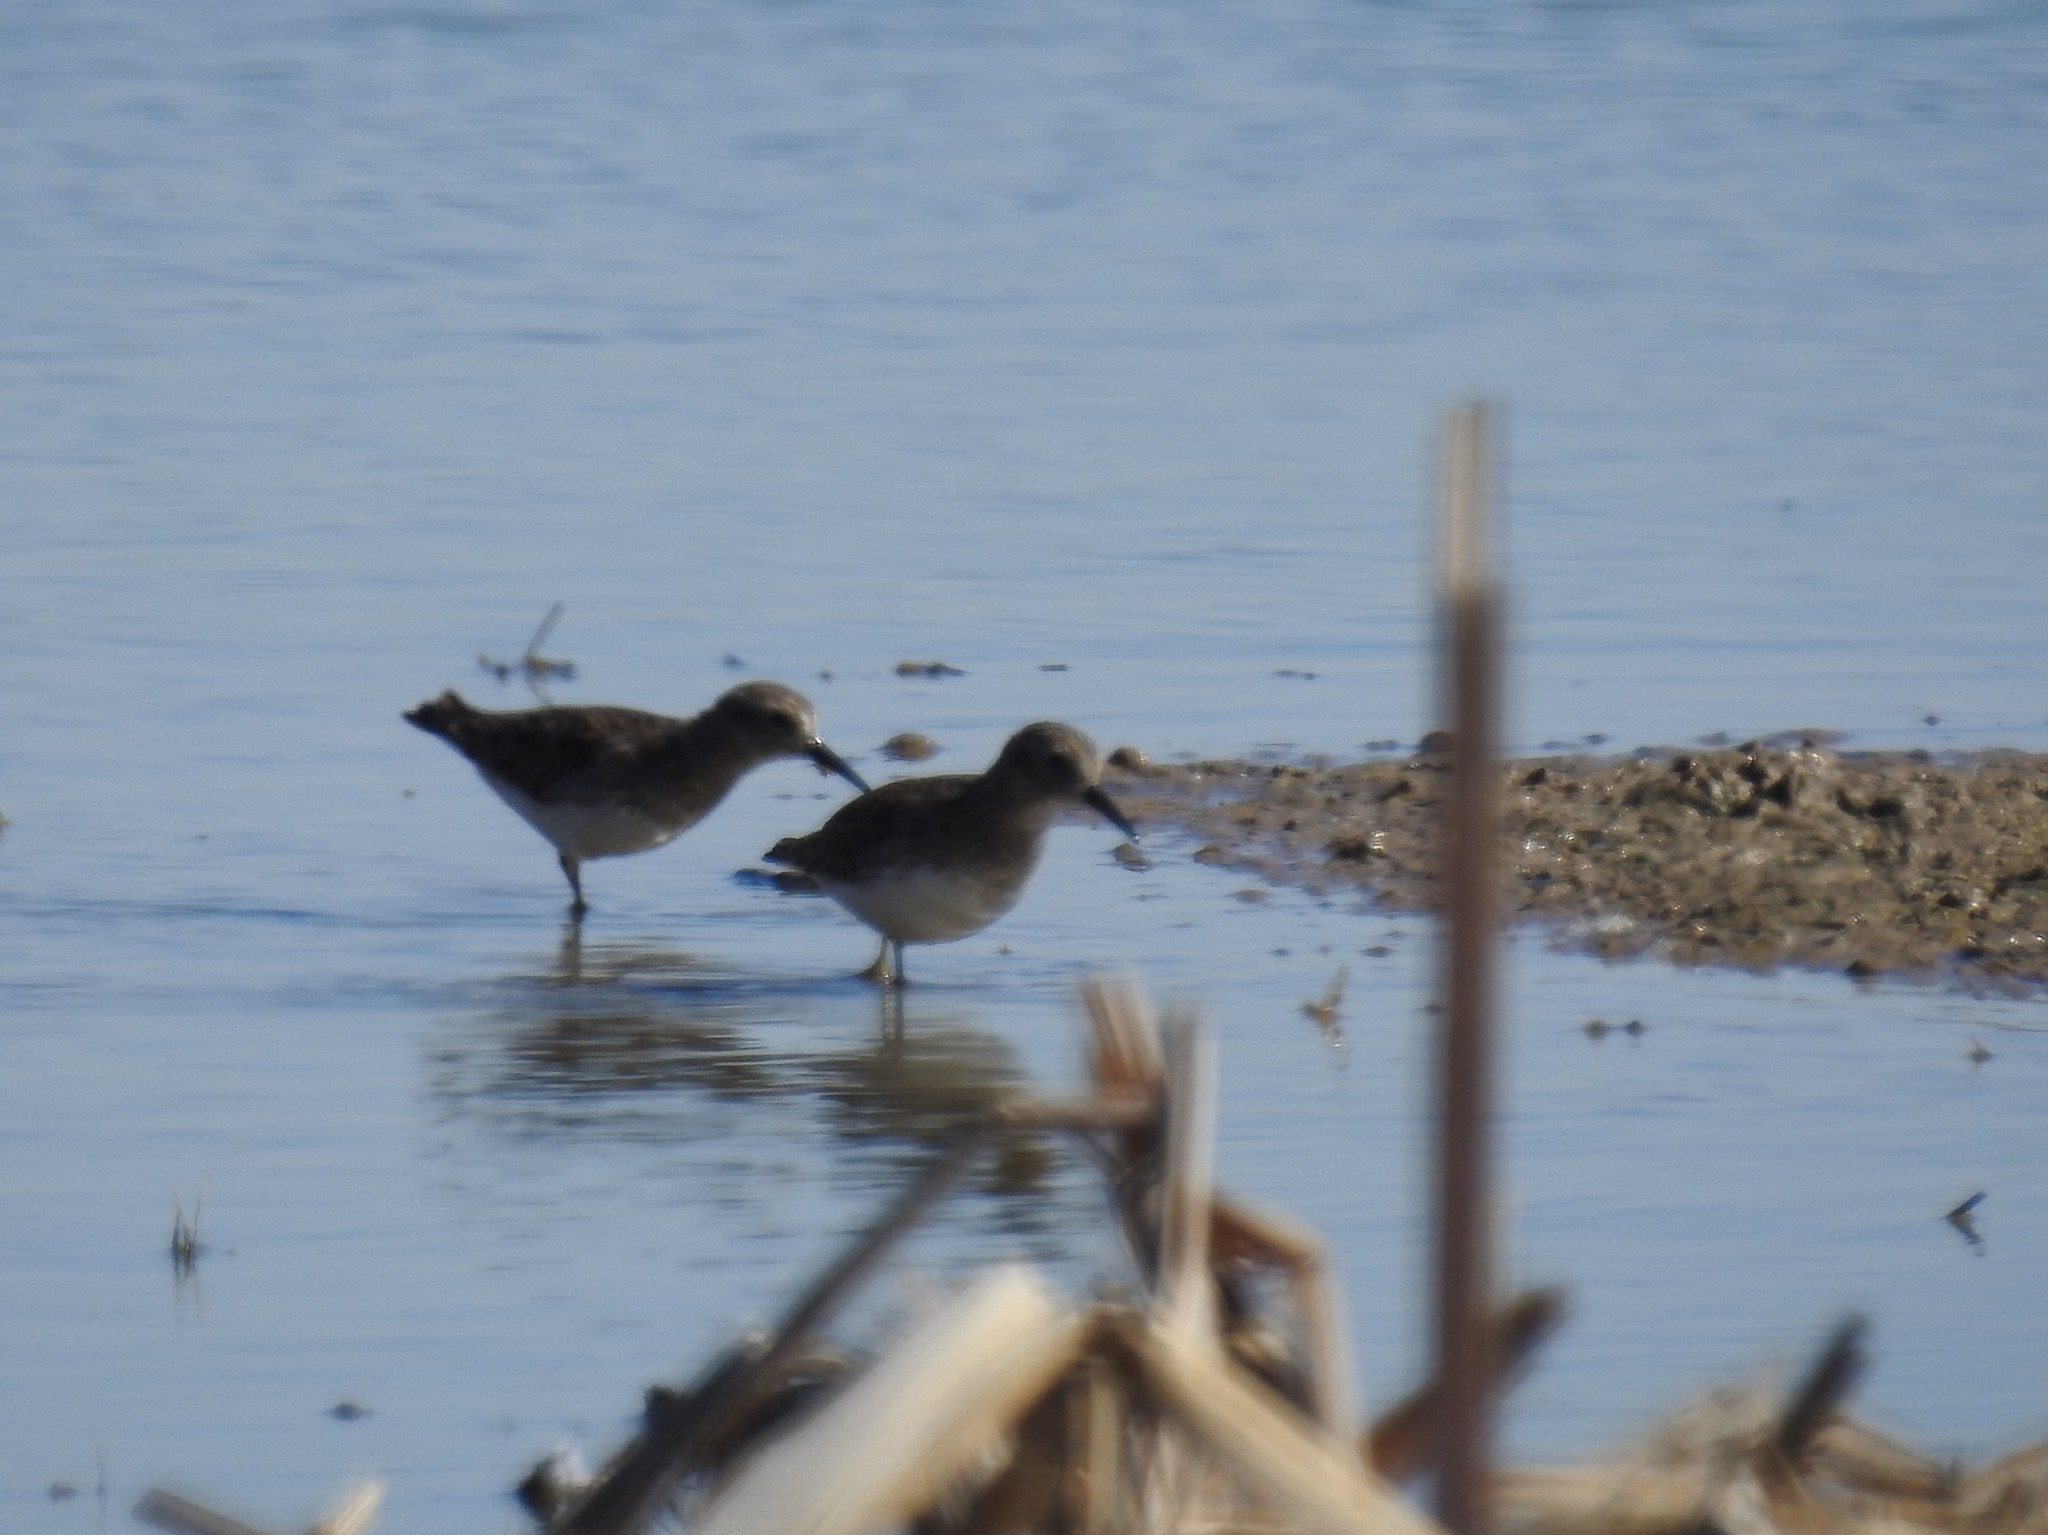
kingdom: Animalia
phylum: Chordata
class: Aves
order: Charadriiformes
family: Scolopacidae
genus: Calidris
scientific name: Calidris minutilla
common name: Least sandpiper
